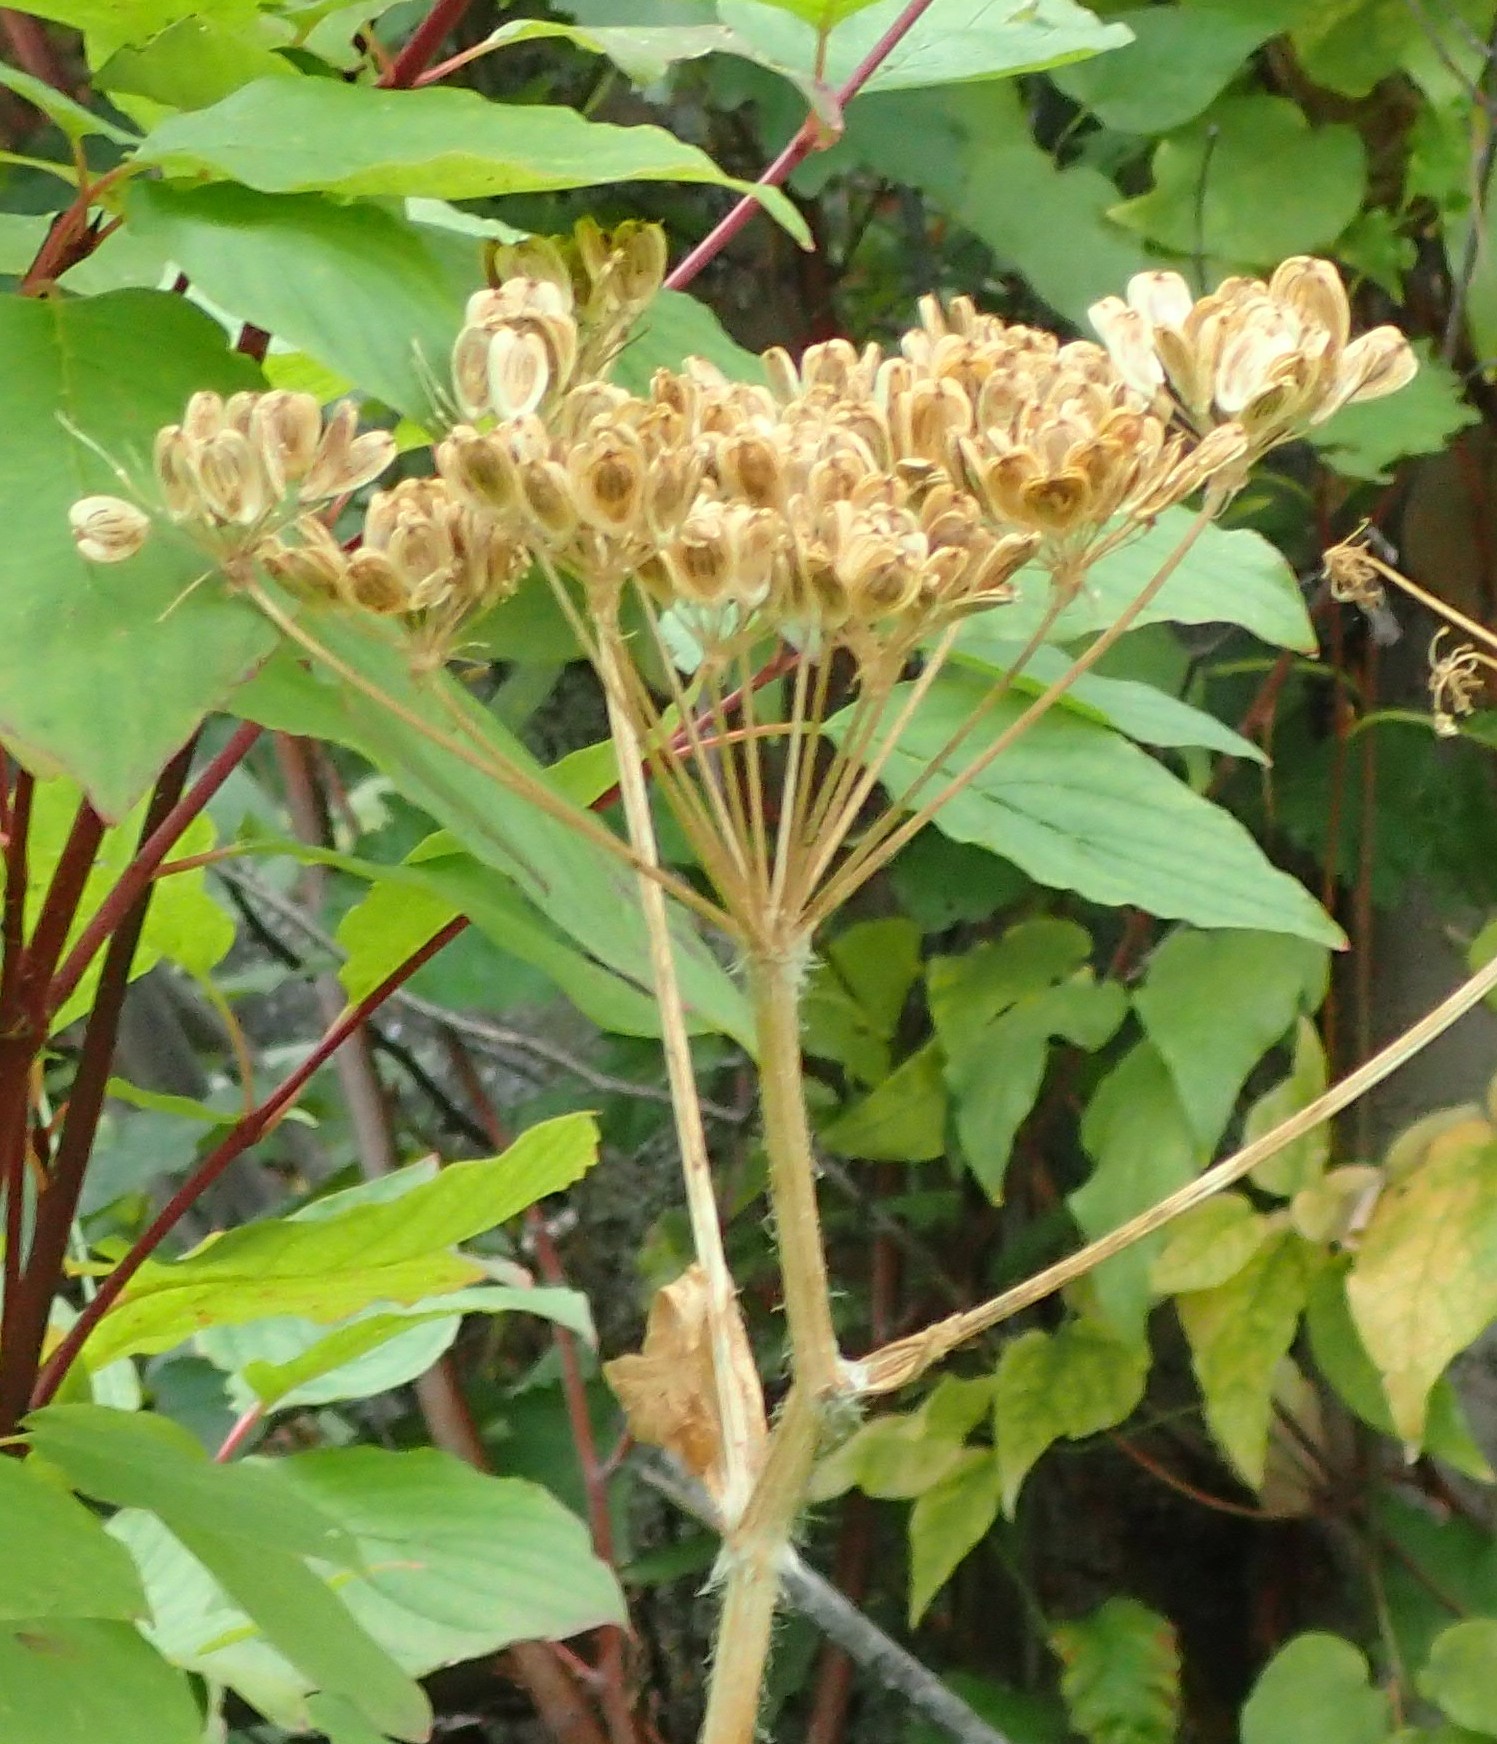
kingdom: Plantae
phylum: Tracheophyta
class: Magnoliopsida
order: Apiales
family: Apiaceae
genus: Heracleum
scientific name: Heracleum maximum
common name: American cow parsnip
